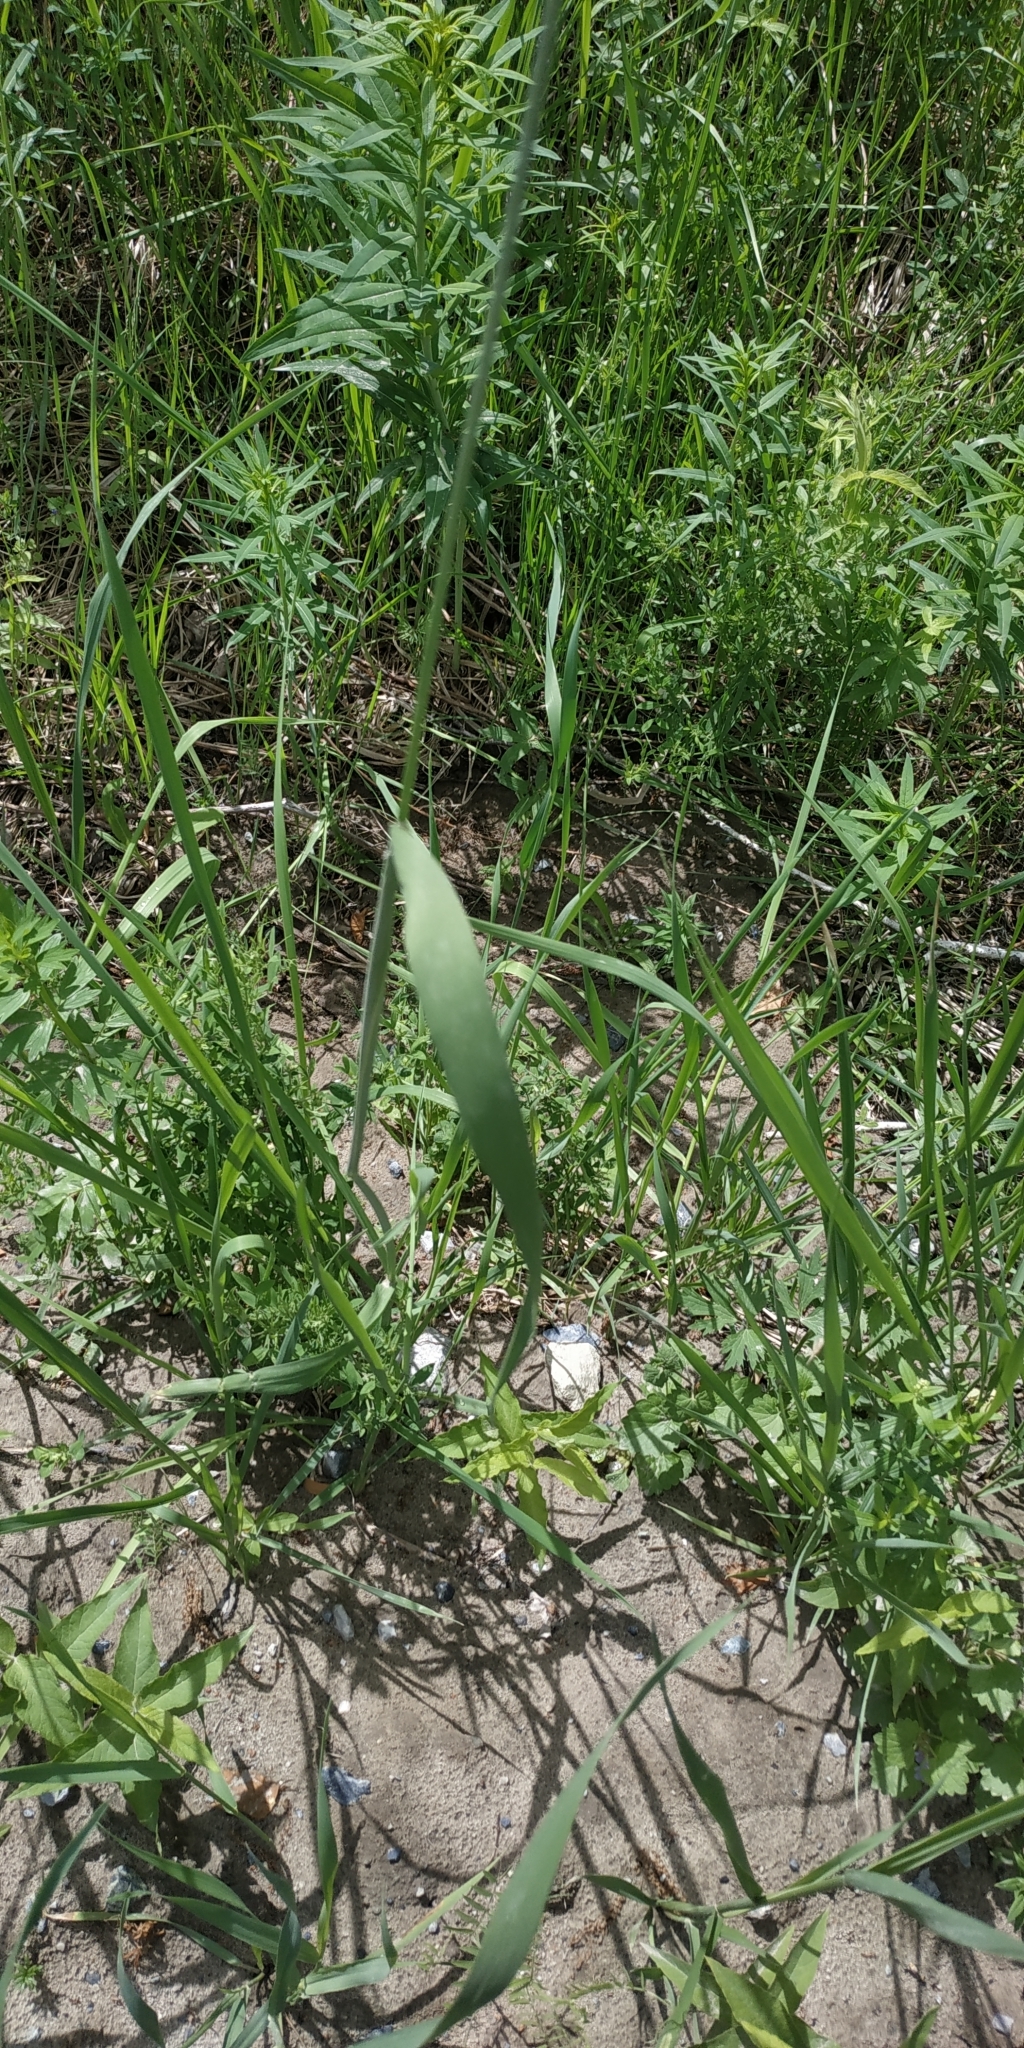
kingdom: Plantae
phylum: Tracheophyta
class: Liliopsida
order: Poales
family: Poaceae
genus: Alopecurus
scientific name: Alopecurus pratensis
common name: Meadow foxtail
